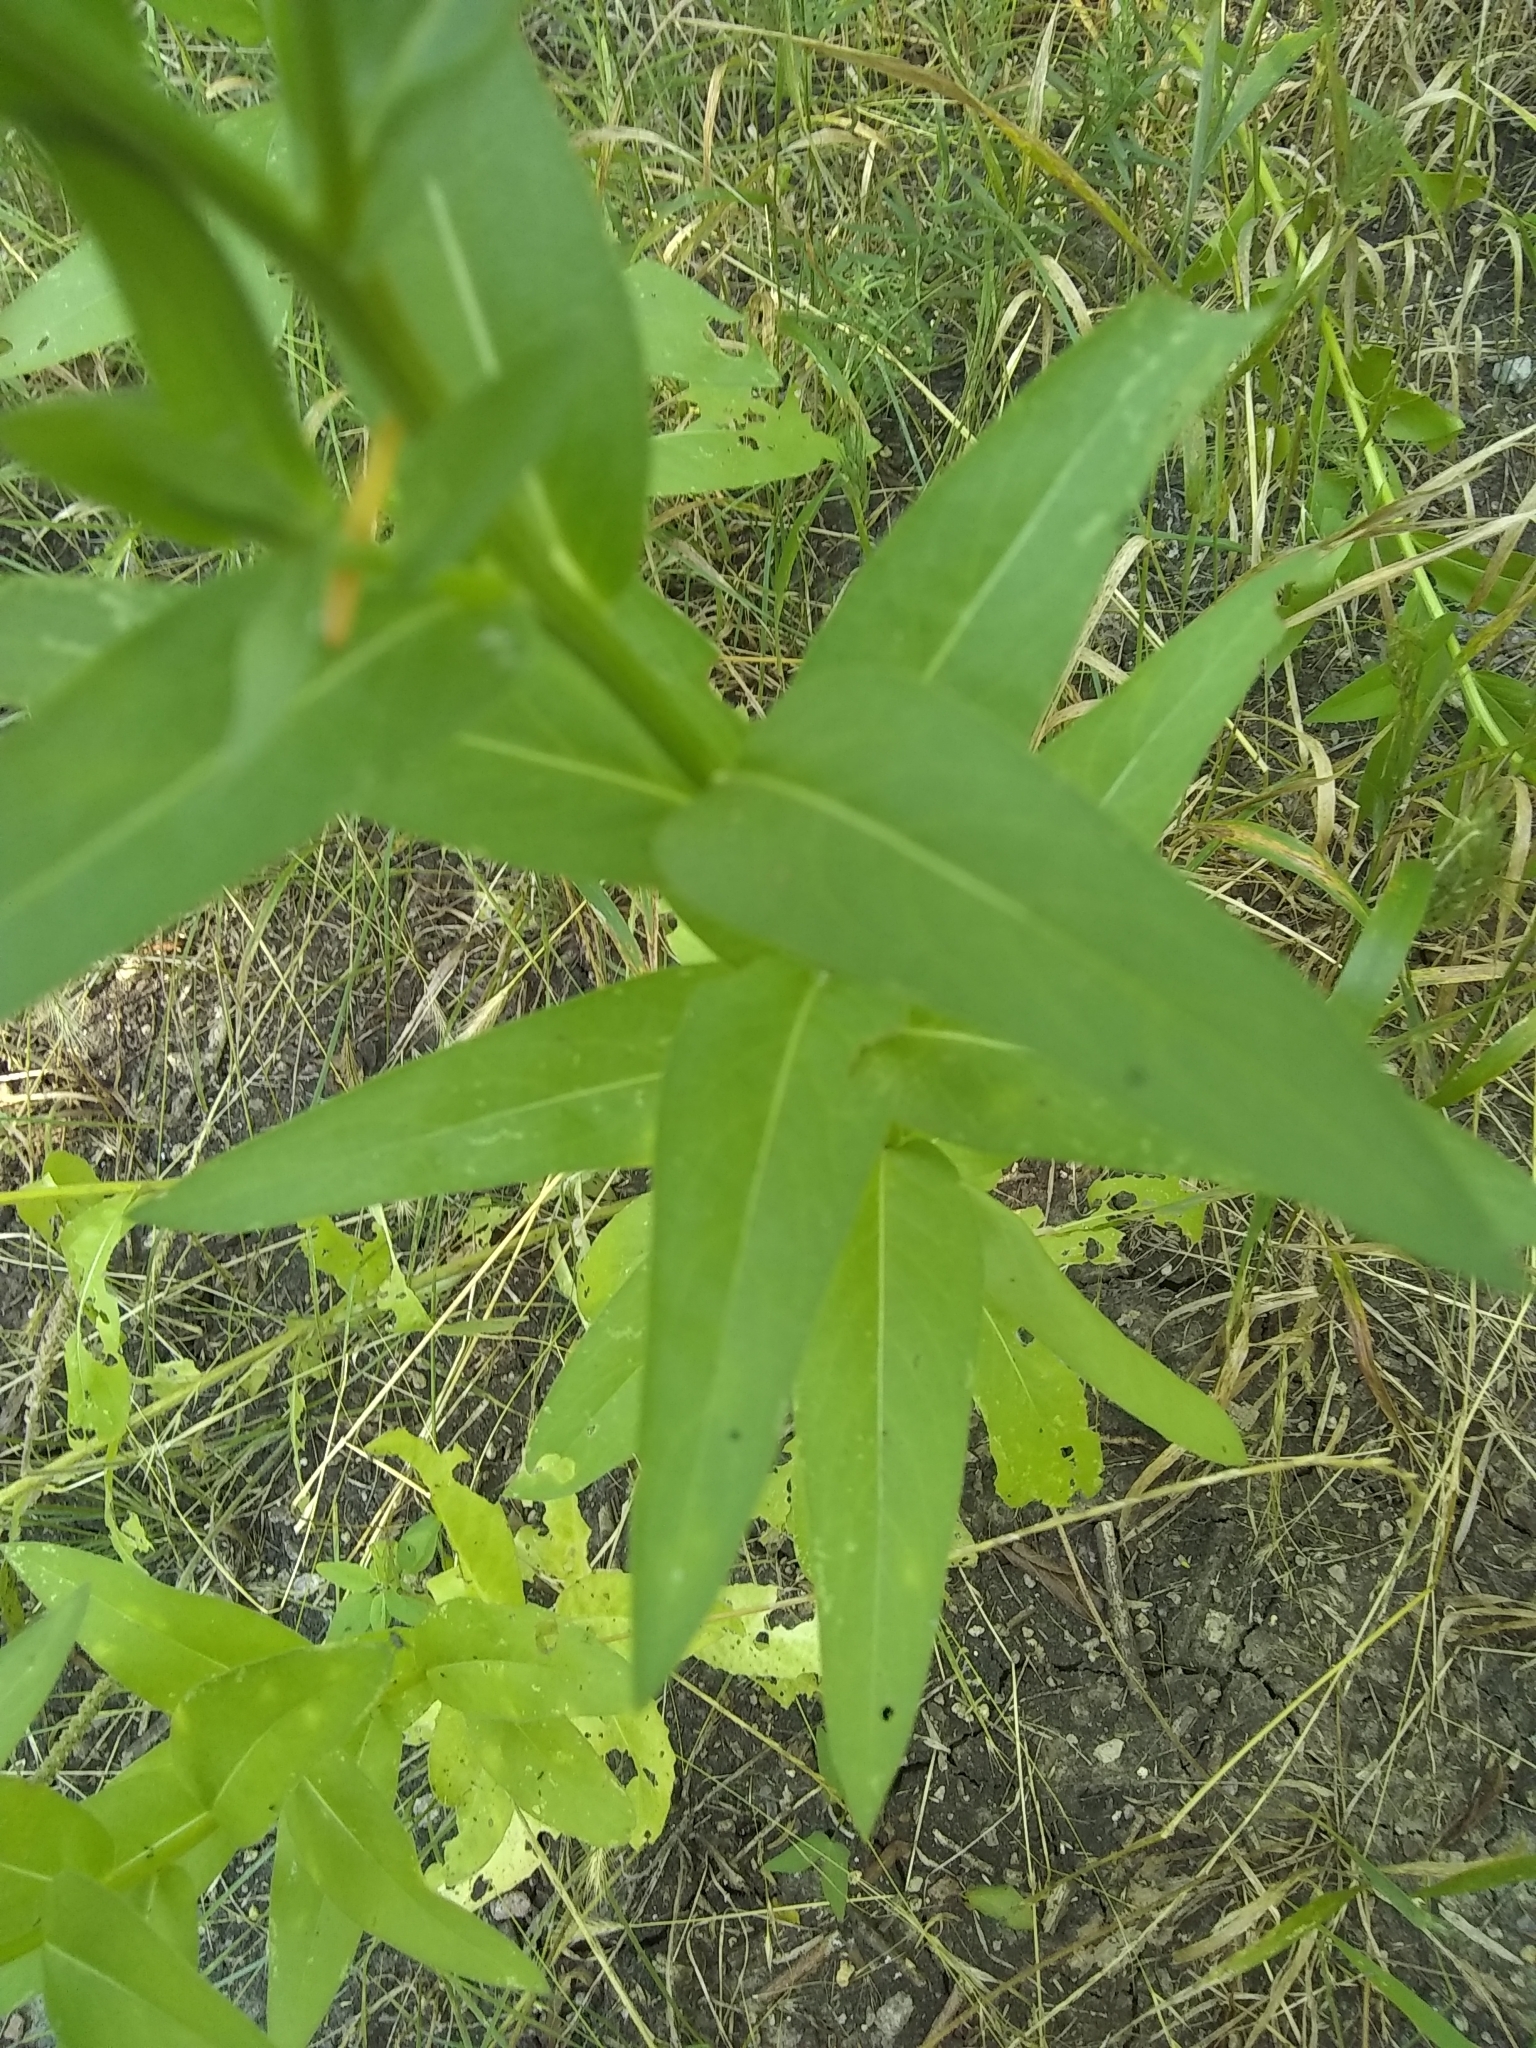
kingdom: Plantae
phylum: Tracheophyta
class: Magnoliopsida
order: Asterales
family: Asteraceae
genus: Plectocephalus
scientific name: Plectocephalus americanus
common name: American basket-flower
